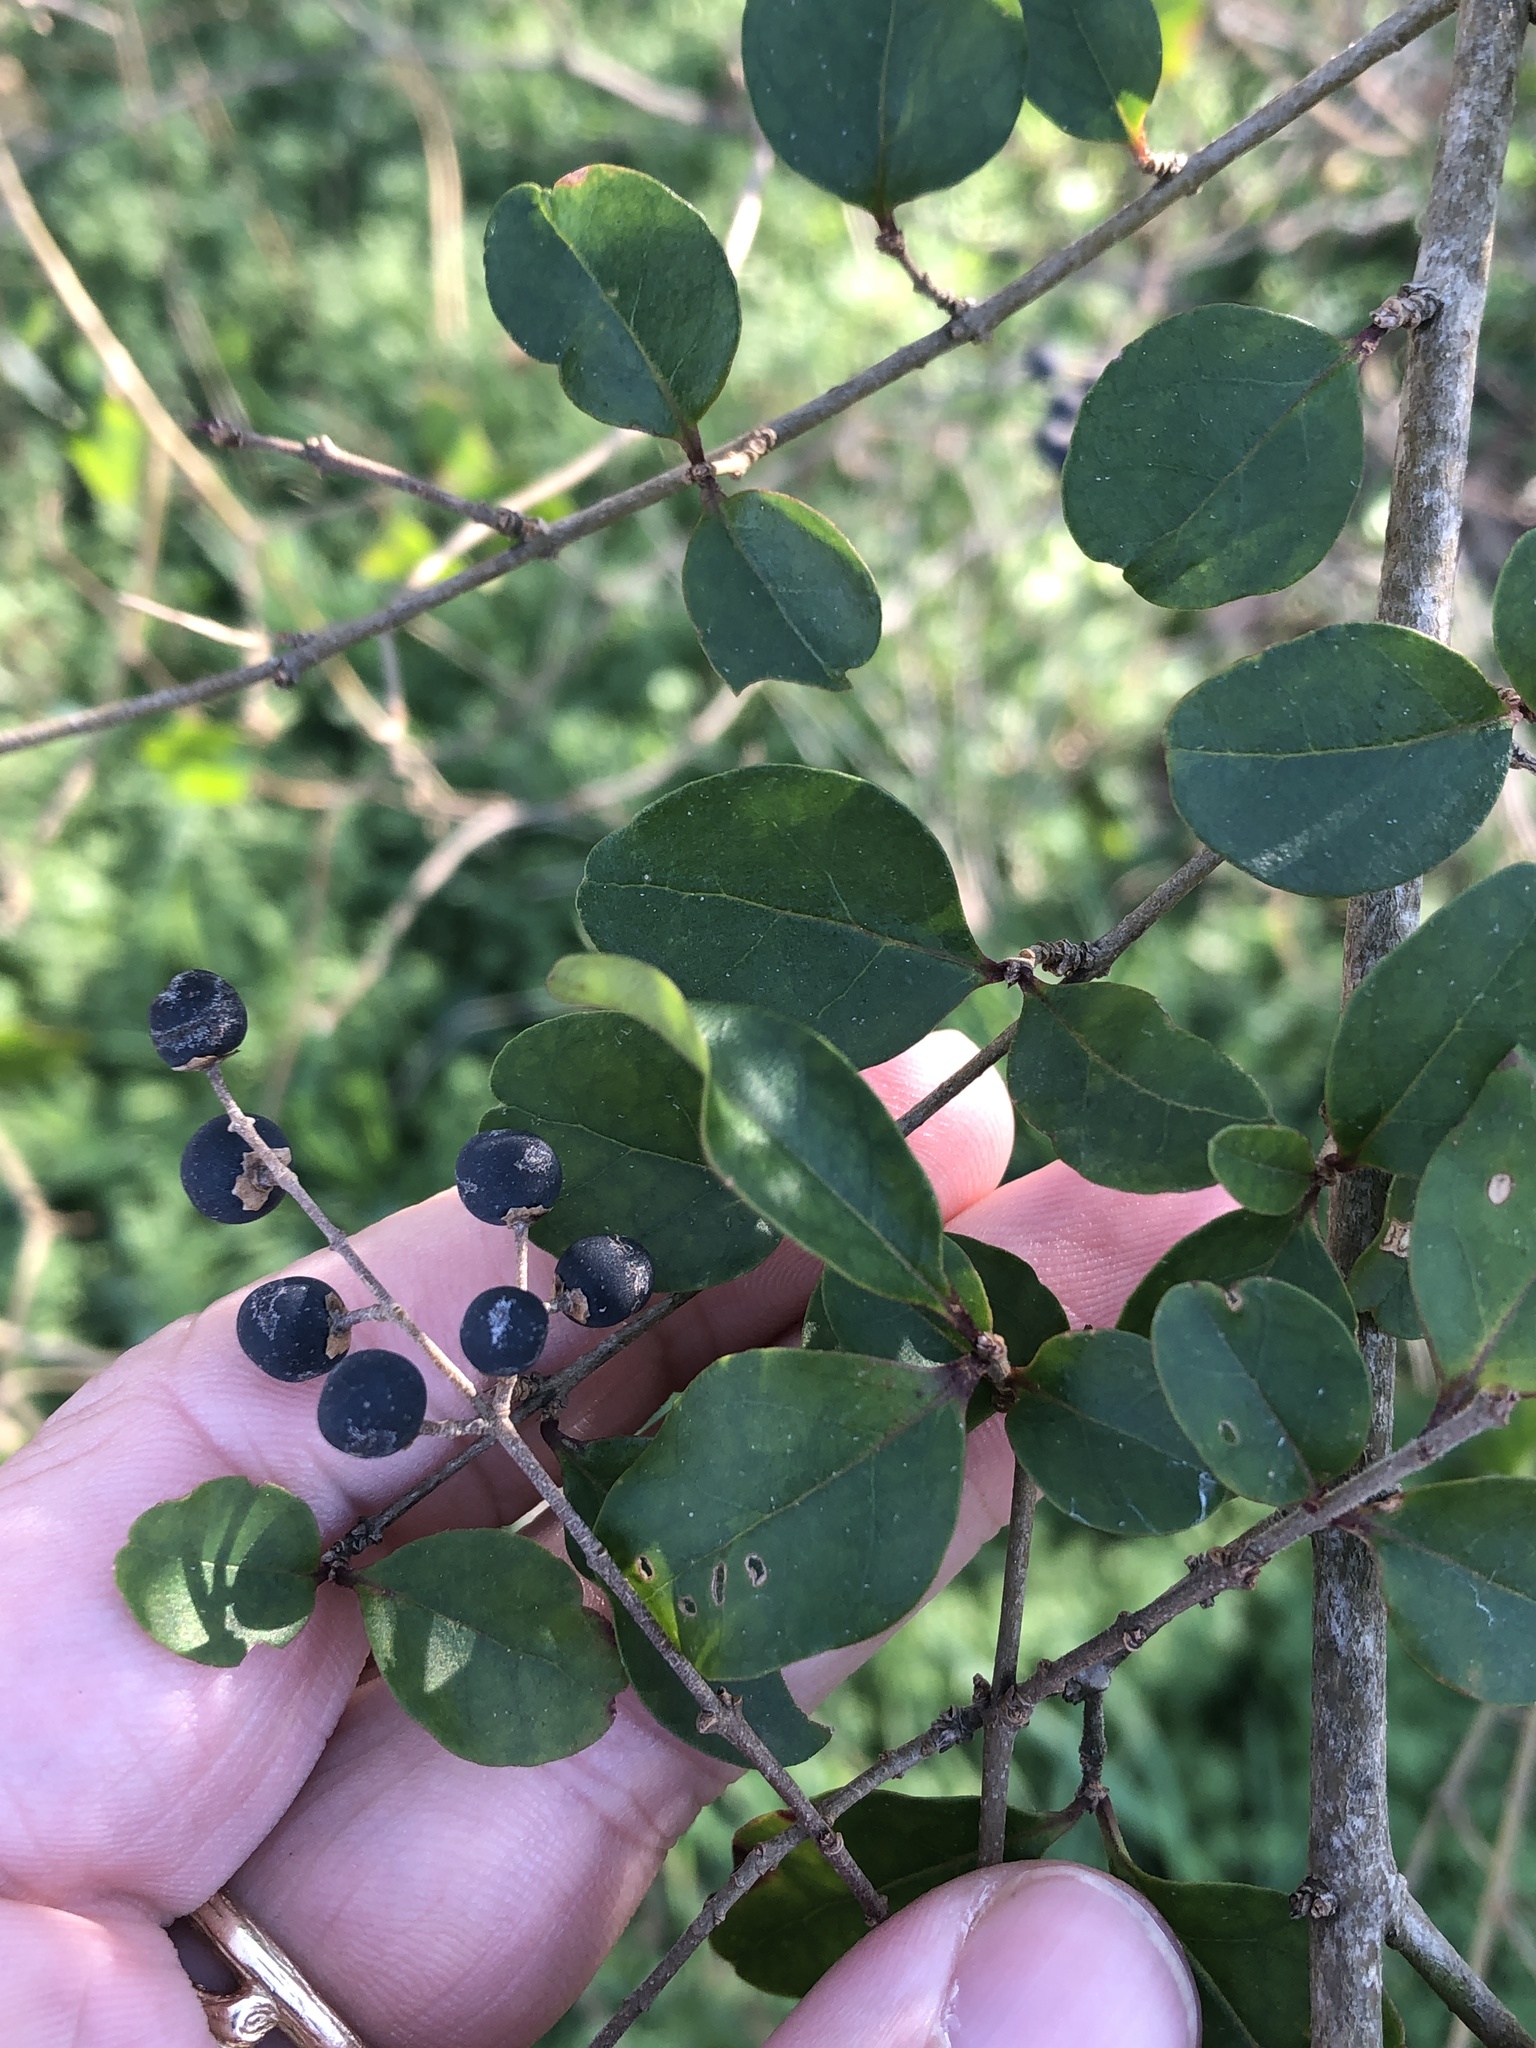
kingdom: Plantae
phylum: Tracheophyta
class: Magnoliopsida
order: Lamiales
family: Oleaceae
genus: Ligustrum
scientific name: Ligustrum sinense
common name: Chinese privet
